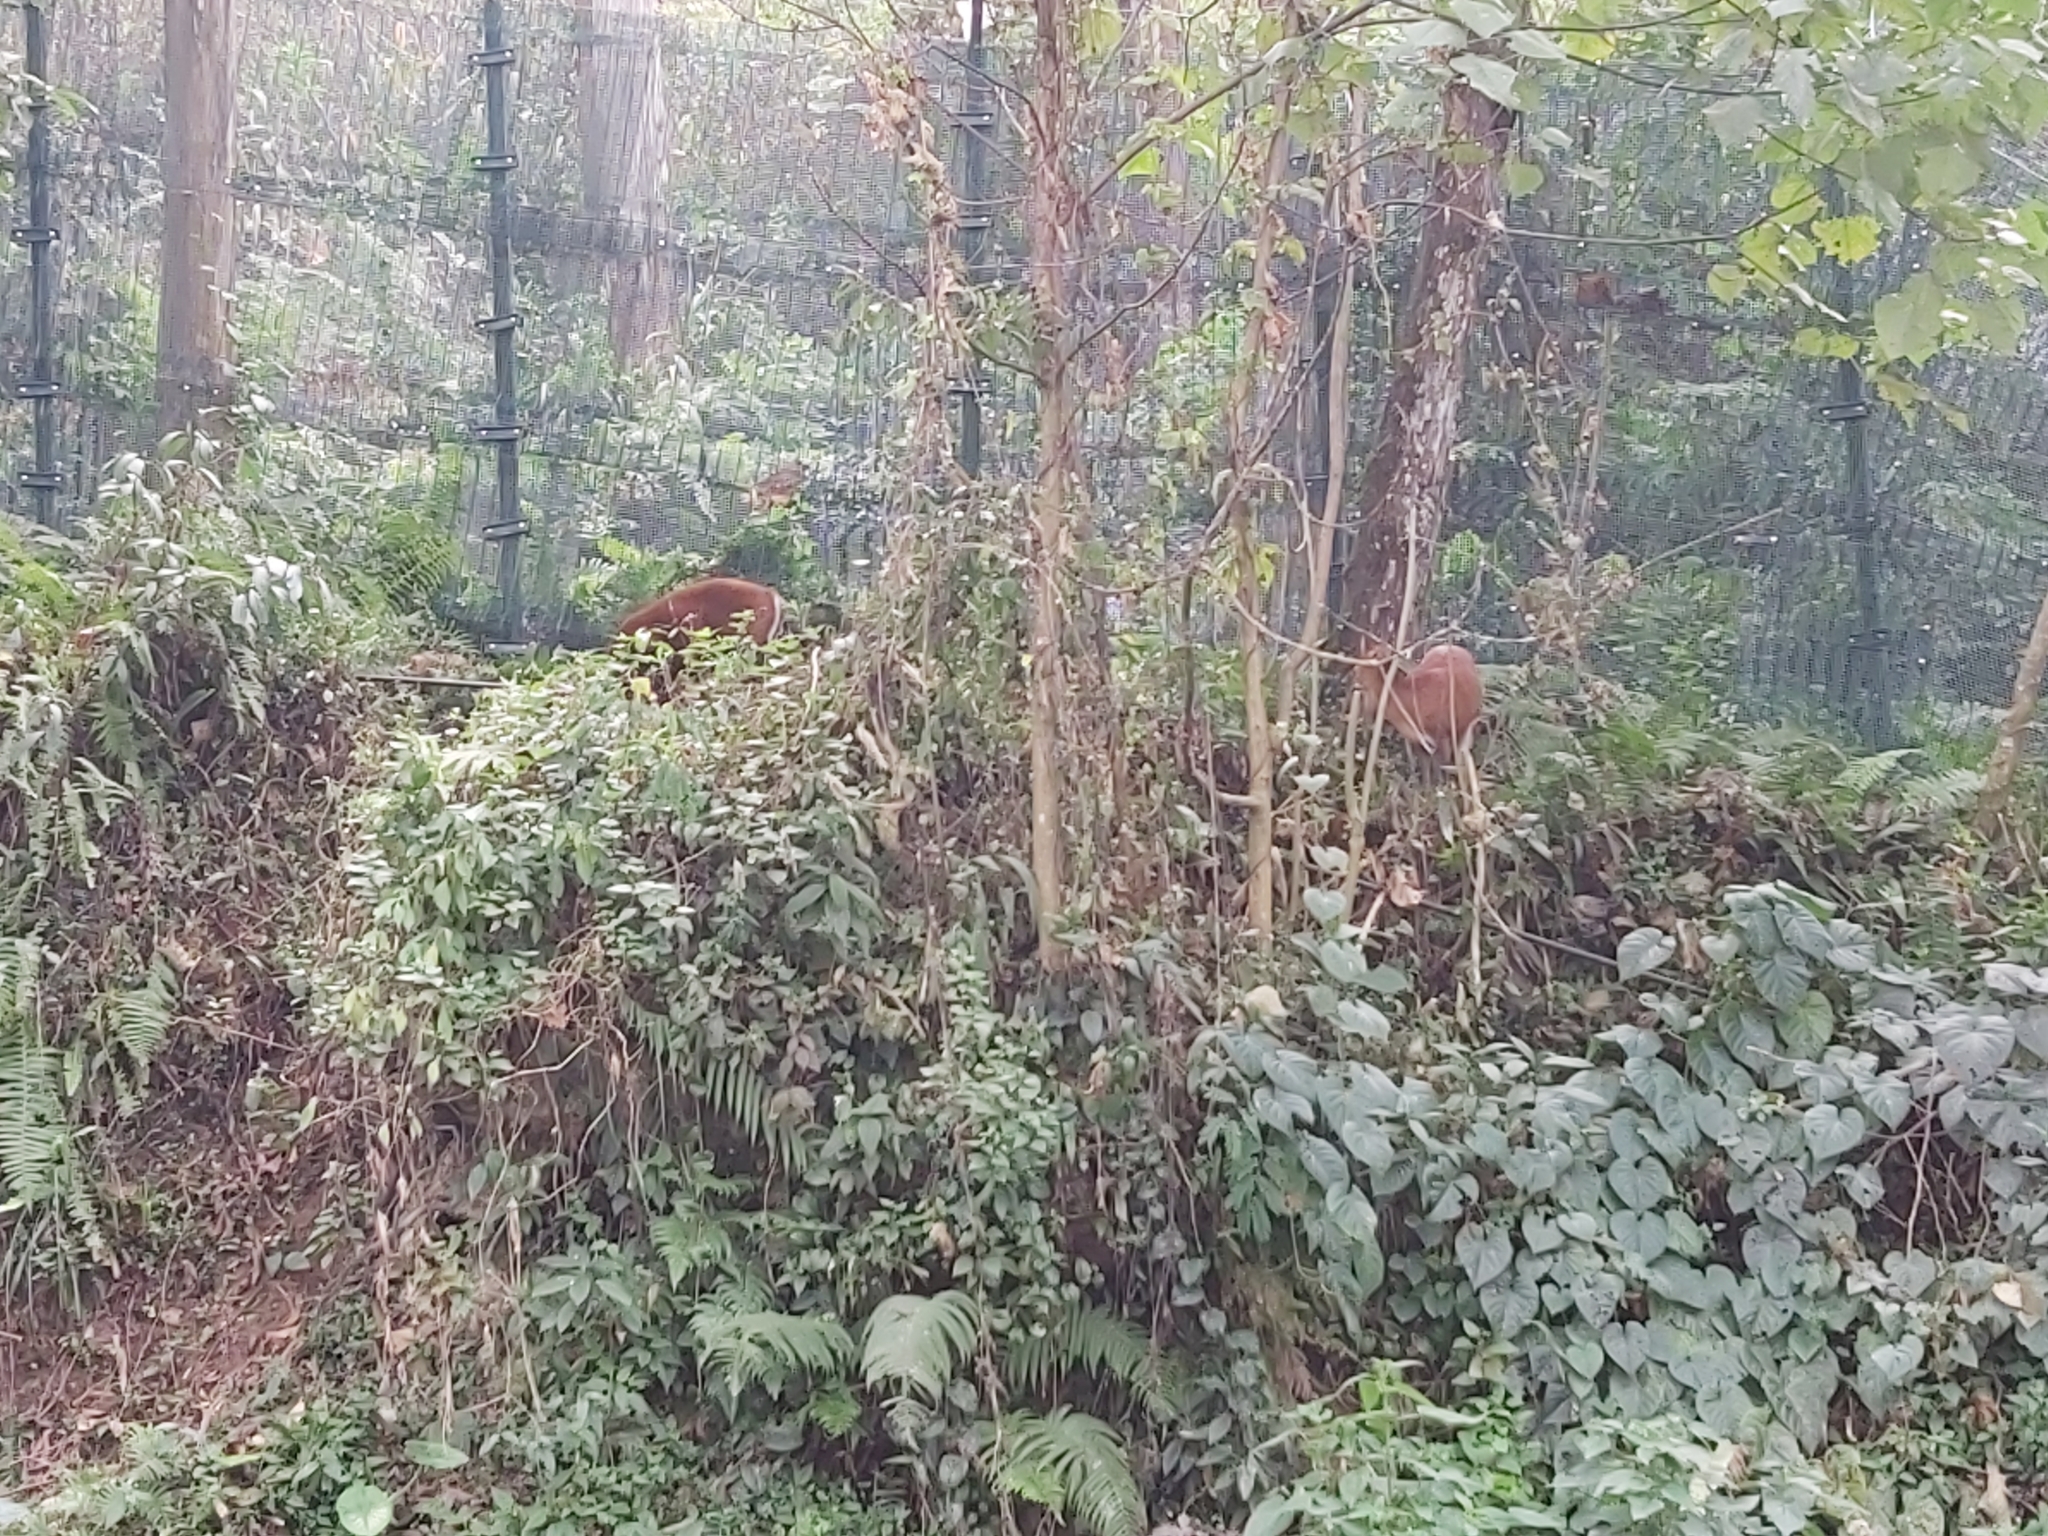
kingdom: Animalia
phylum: Chordata
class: Mammalia
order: Artiodactyla
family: Cervidae
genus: Muntiacus
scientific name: Muntiacus muntjak
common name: Indian muntjac
